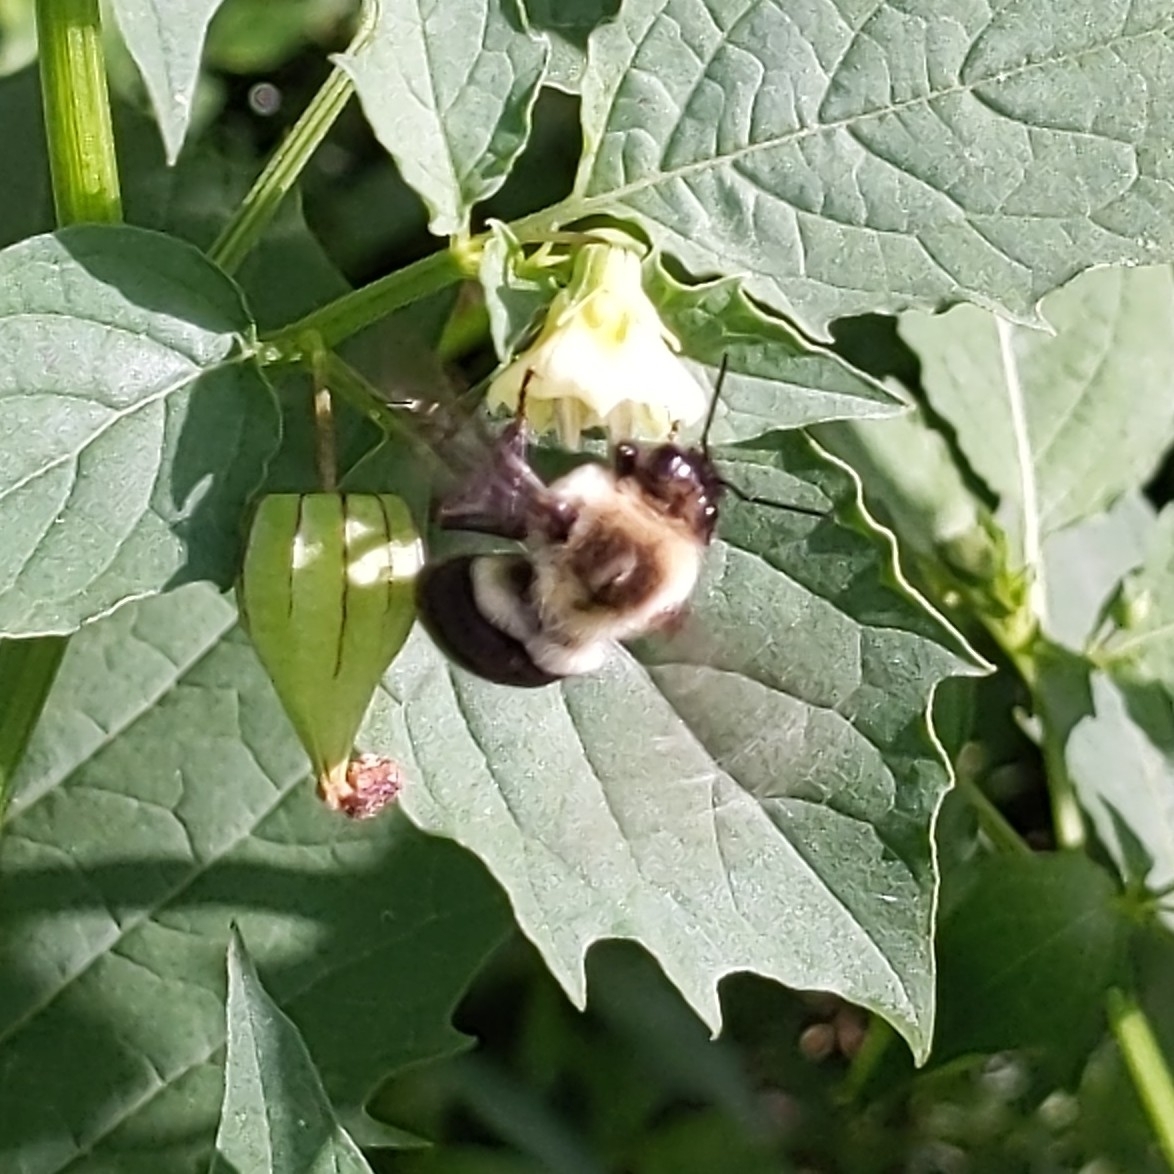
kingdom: Animalia
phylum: Arthropoda
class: Insecta
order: Hymenoptera
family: Apidae
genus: Bombus
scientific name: Bombus impatiens
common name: Common eastern bumble bee
